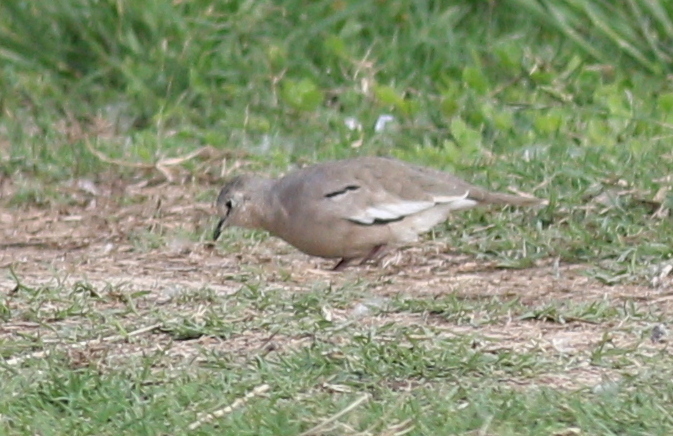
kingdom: Animalia
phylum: Chordata
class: Aves
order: Columbiformes
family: Columbidae
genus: Columbina
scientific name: Columbina picui
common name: Picui ground dove
